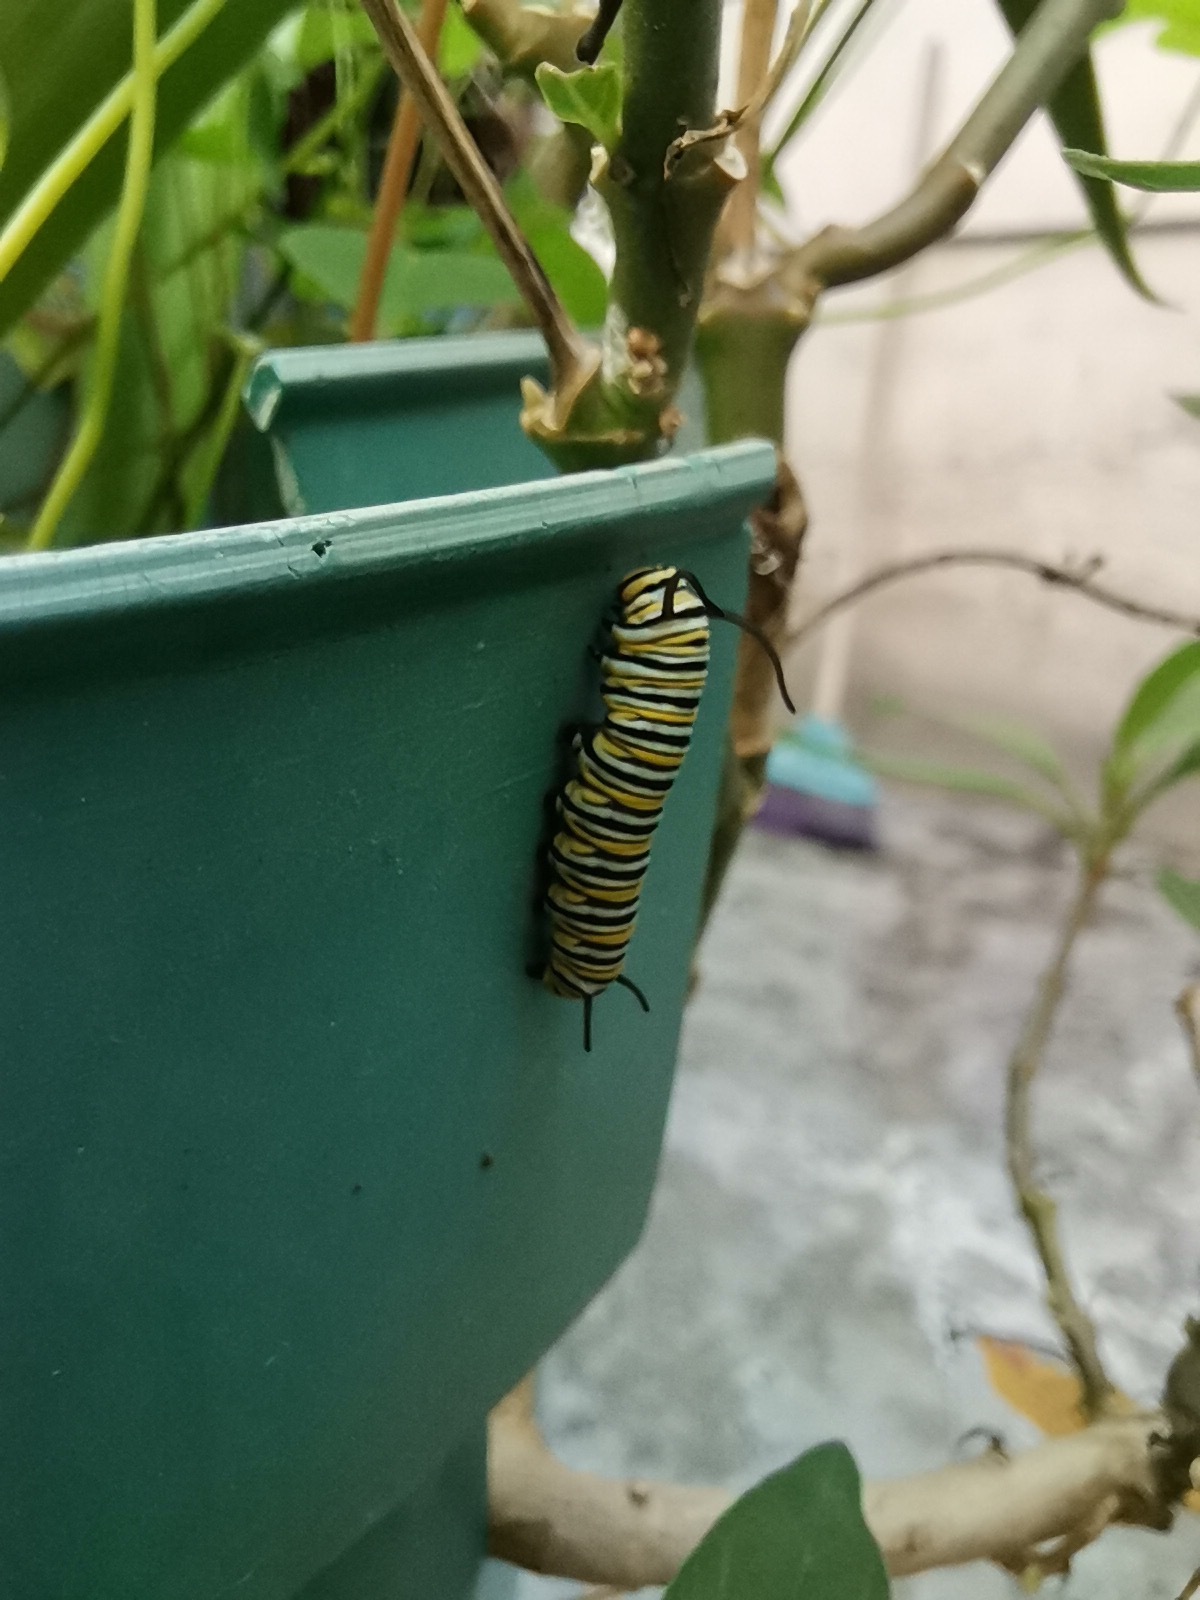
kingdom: Animalia
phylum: Arthropoda
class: Insecta
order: Lepidoptera
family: Nymphalidae
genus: Danaus
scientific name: Danaus plexippus
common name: Monarch
